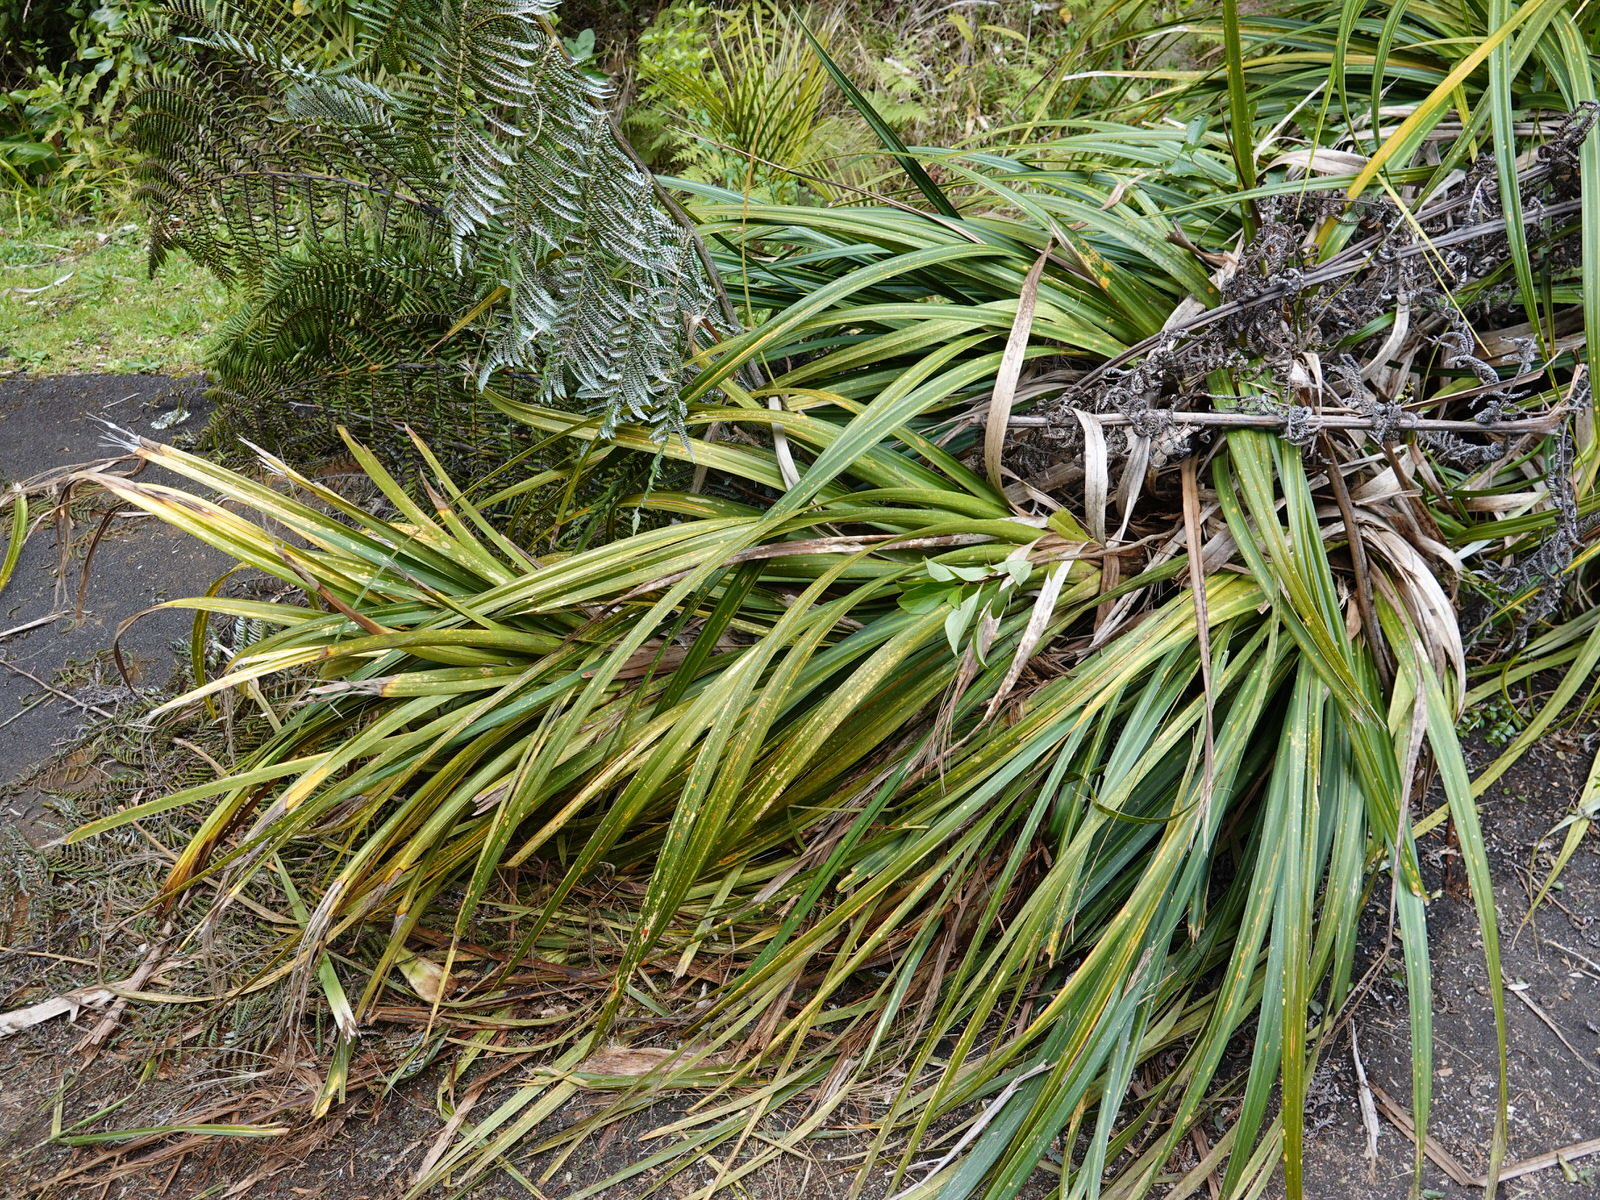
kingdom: Plantae
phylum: Tracheophyta
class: Magnoliopsida
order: Asterales
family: Asteraceae
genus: Brachyglottis
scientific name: Brachyglottis kirkii
